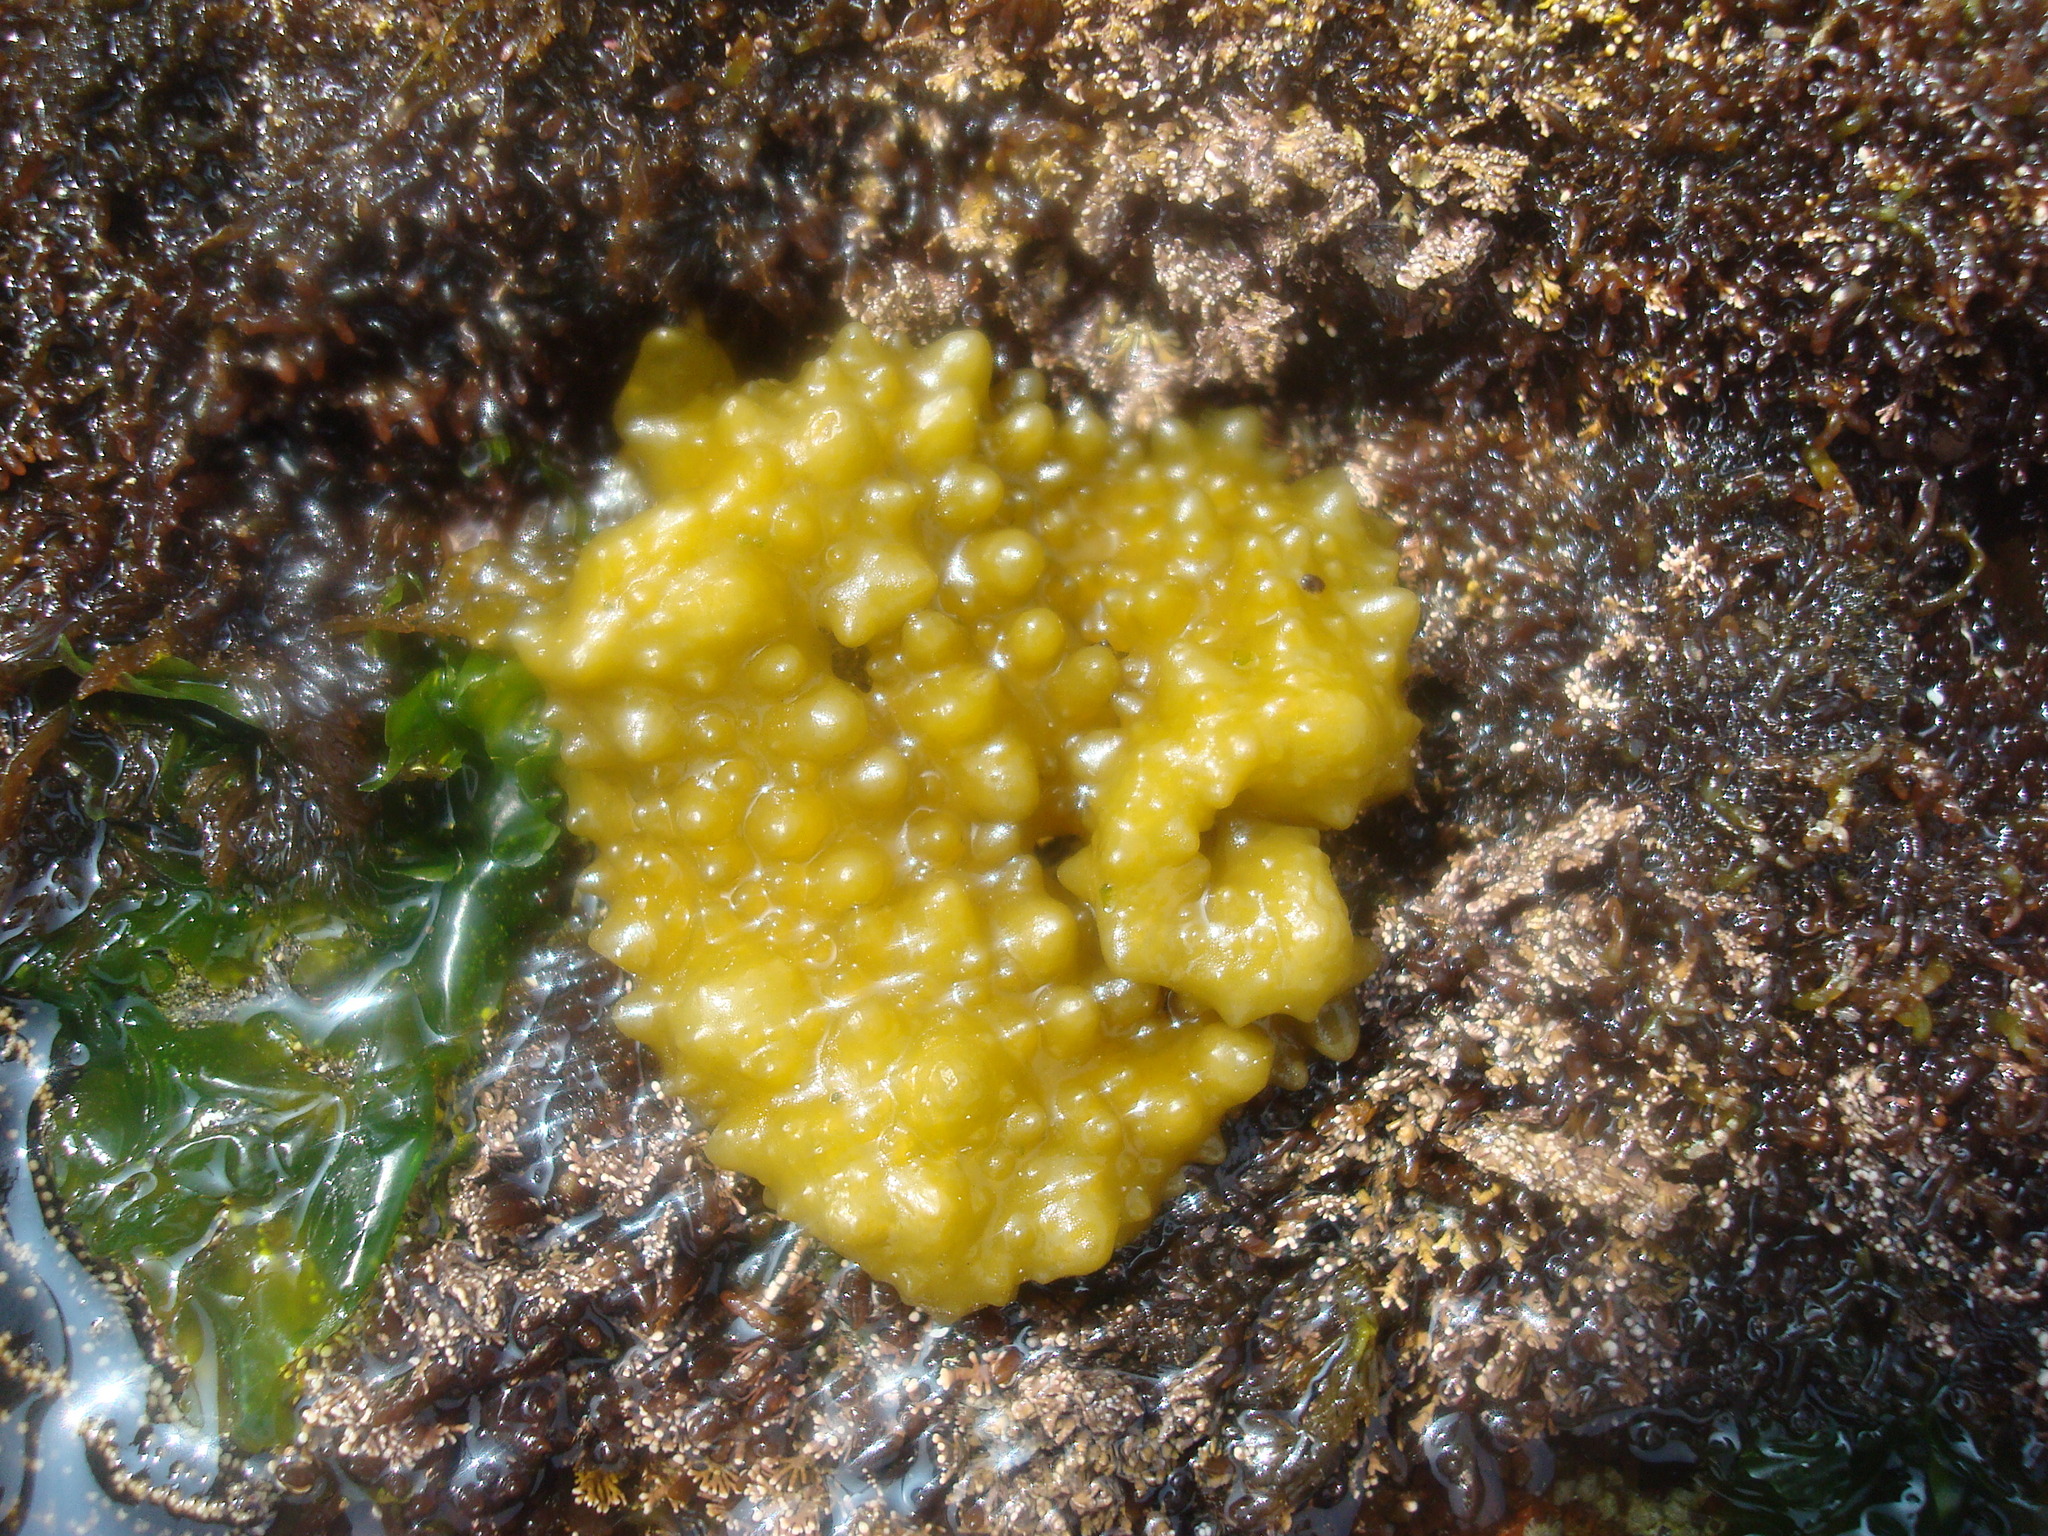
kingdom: Chromista
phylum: Ochrophyta
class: Phaeophyceae
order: Scytosiphonales
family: Scytosiphonaceae
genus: Colpomenia
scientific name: Colpomenia
